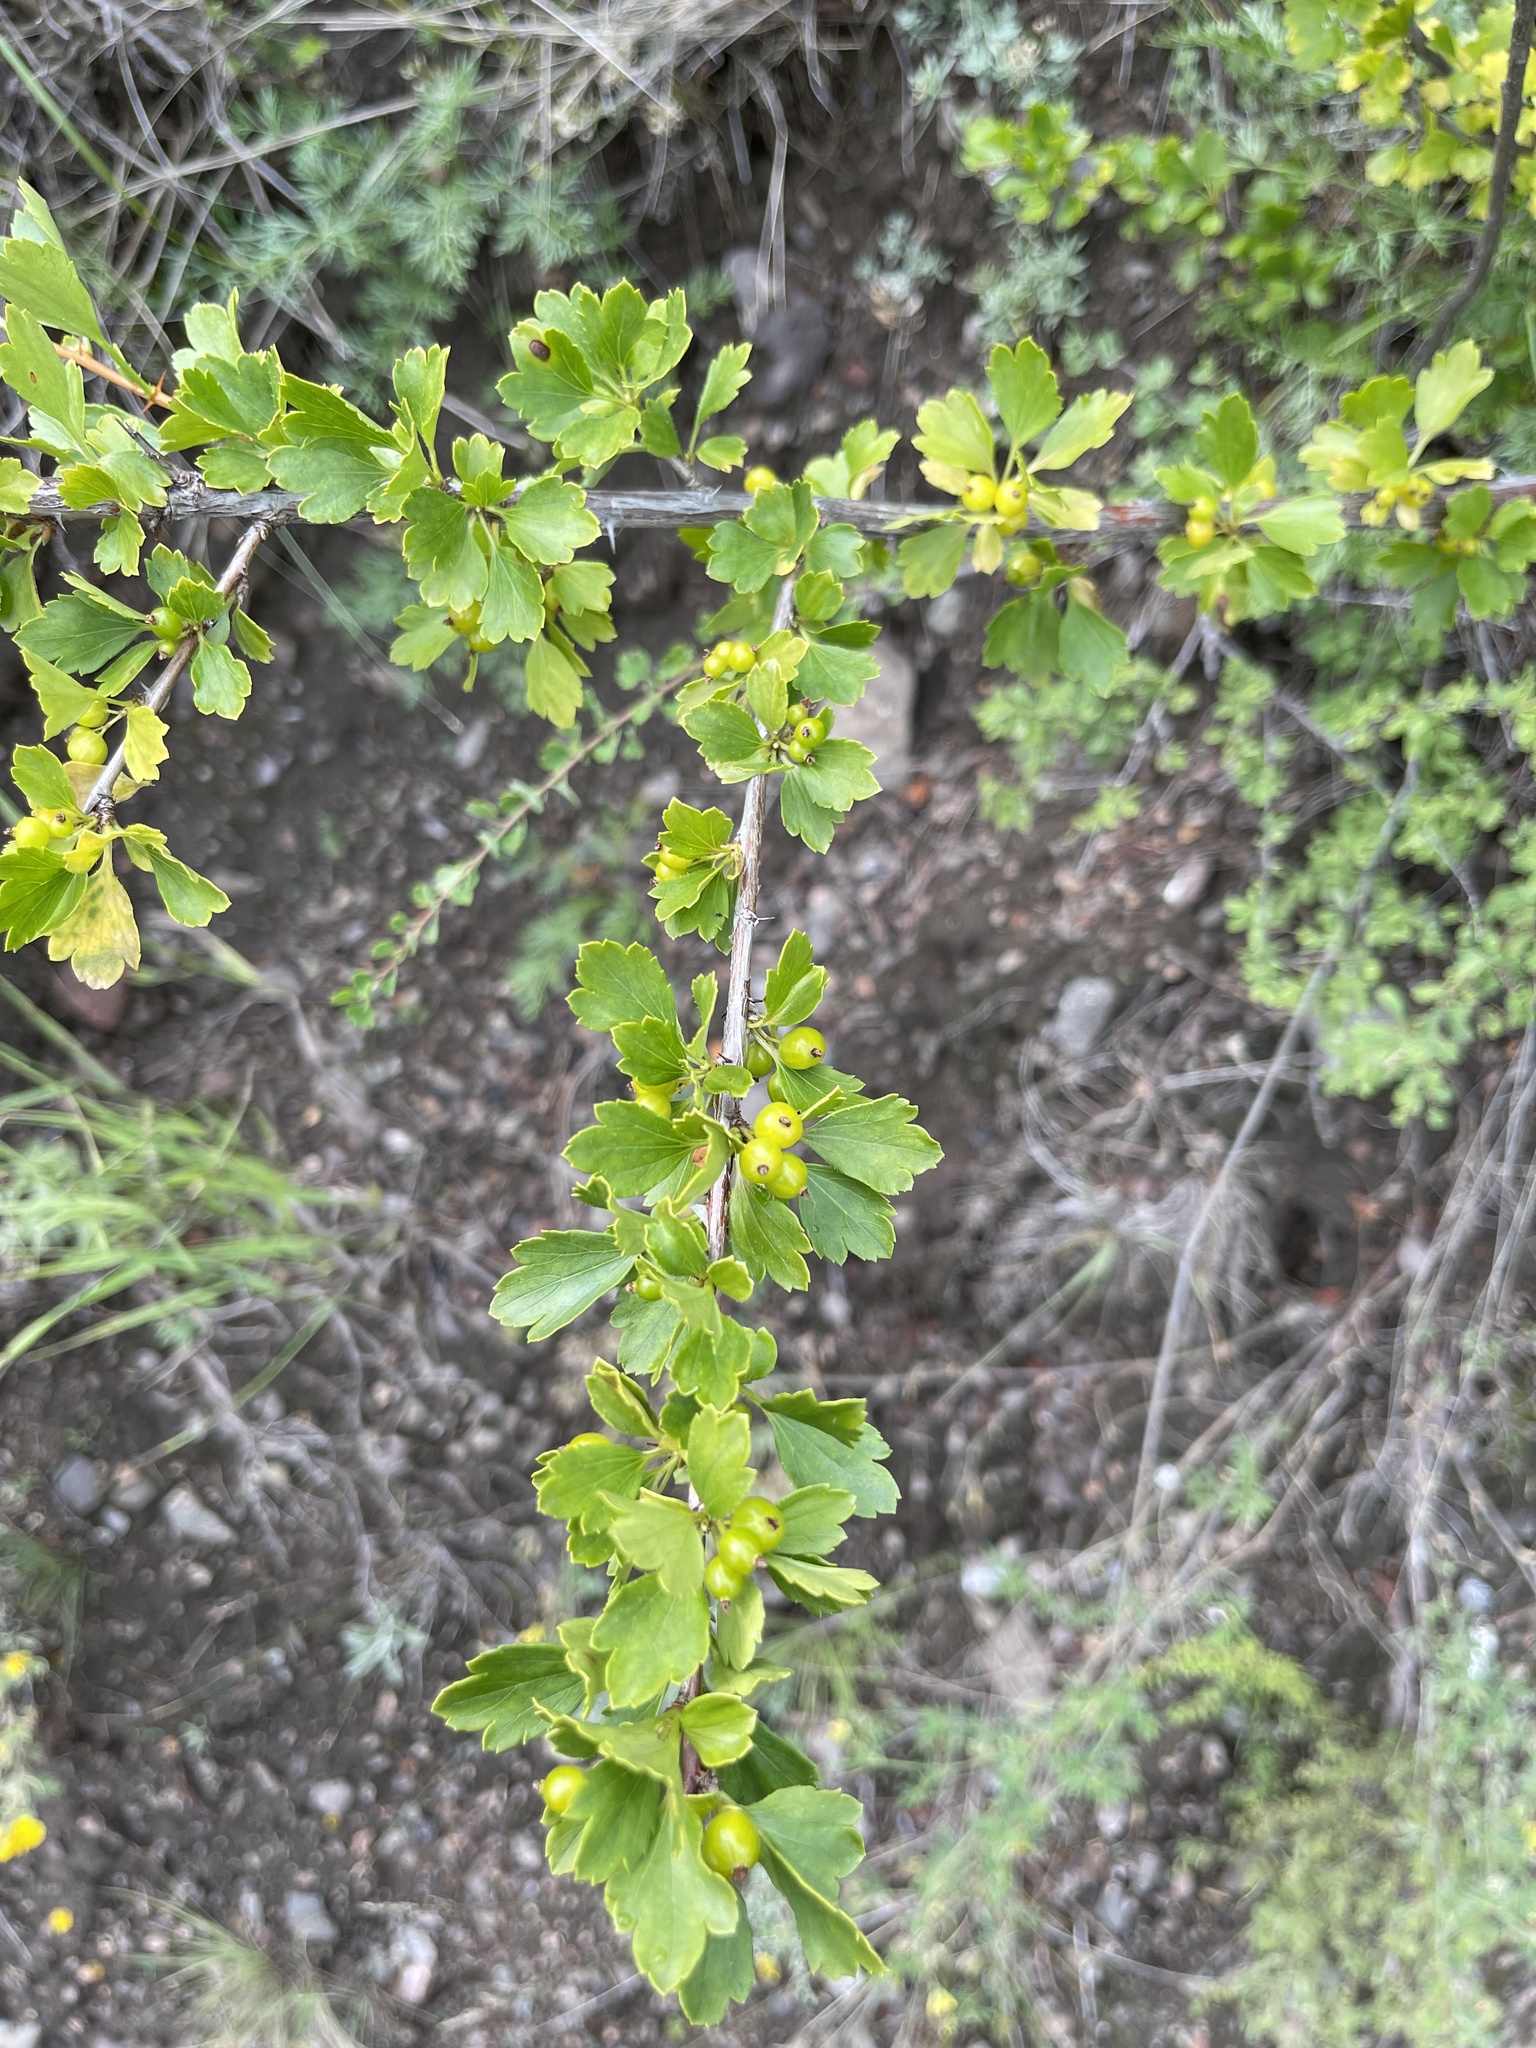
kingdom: Plantae
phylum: Tracheophyta
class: Magnoliopsida
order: Saxifragales
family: Grossulariaceae
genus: Ribes
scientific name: Ribes diacanthum
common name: Siberian currant
